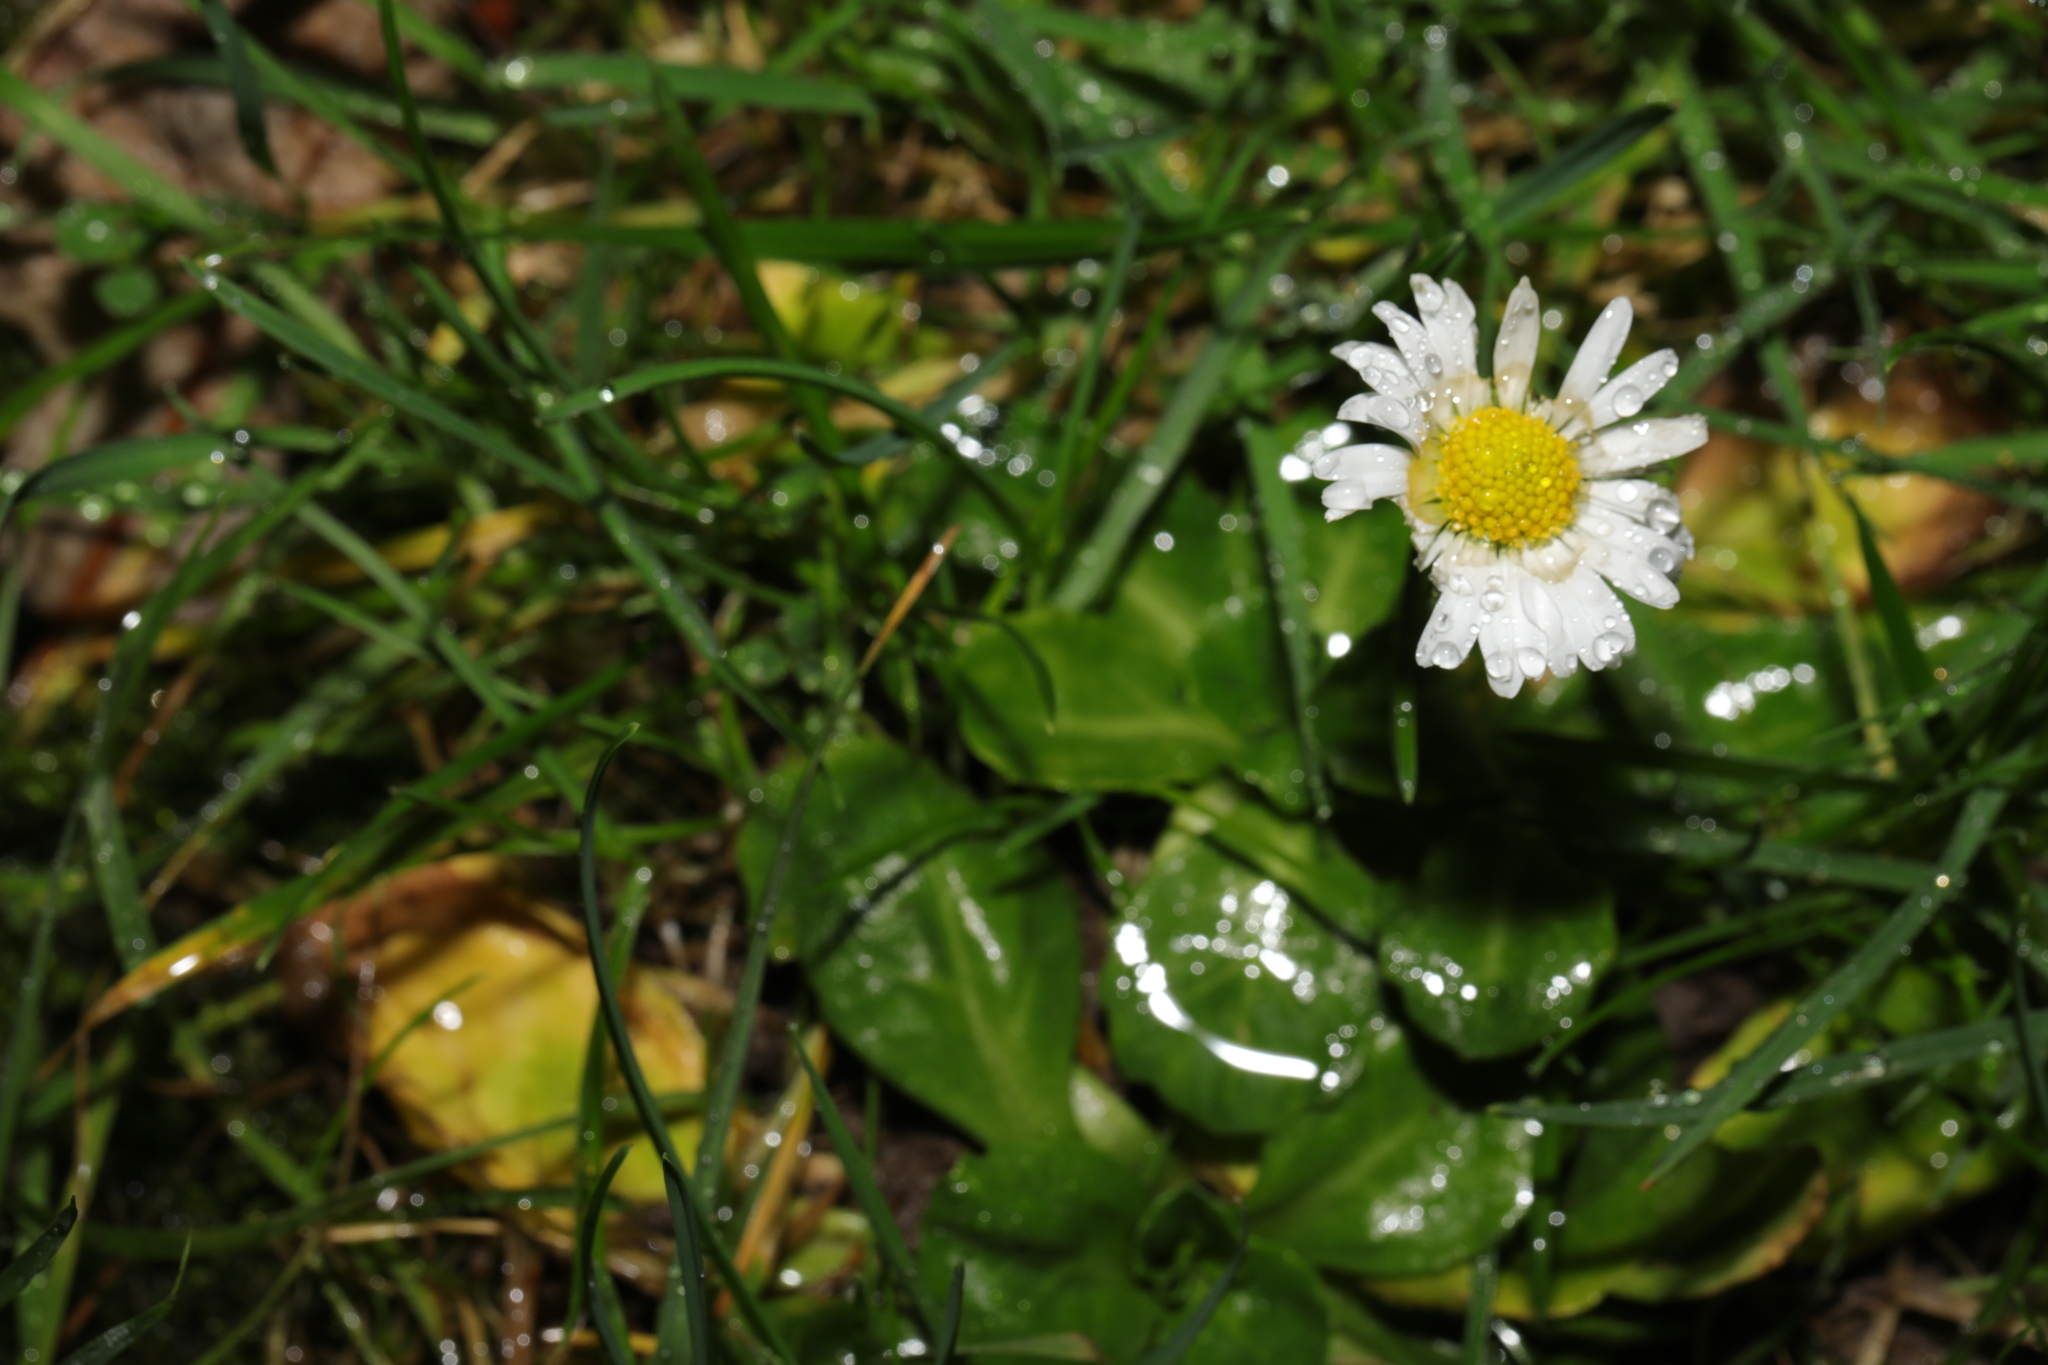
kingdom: Plantae
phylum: Tracheophyta
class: Magnoliopsida
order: Asterales
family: Asteraceae
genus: Bellis
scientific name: Bellis perennis
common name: Lawndaisy
